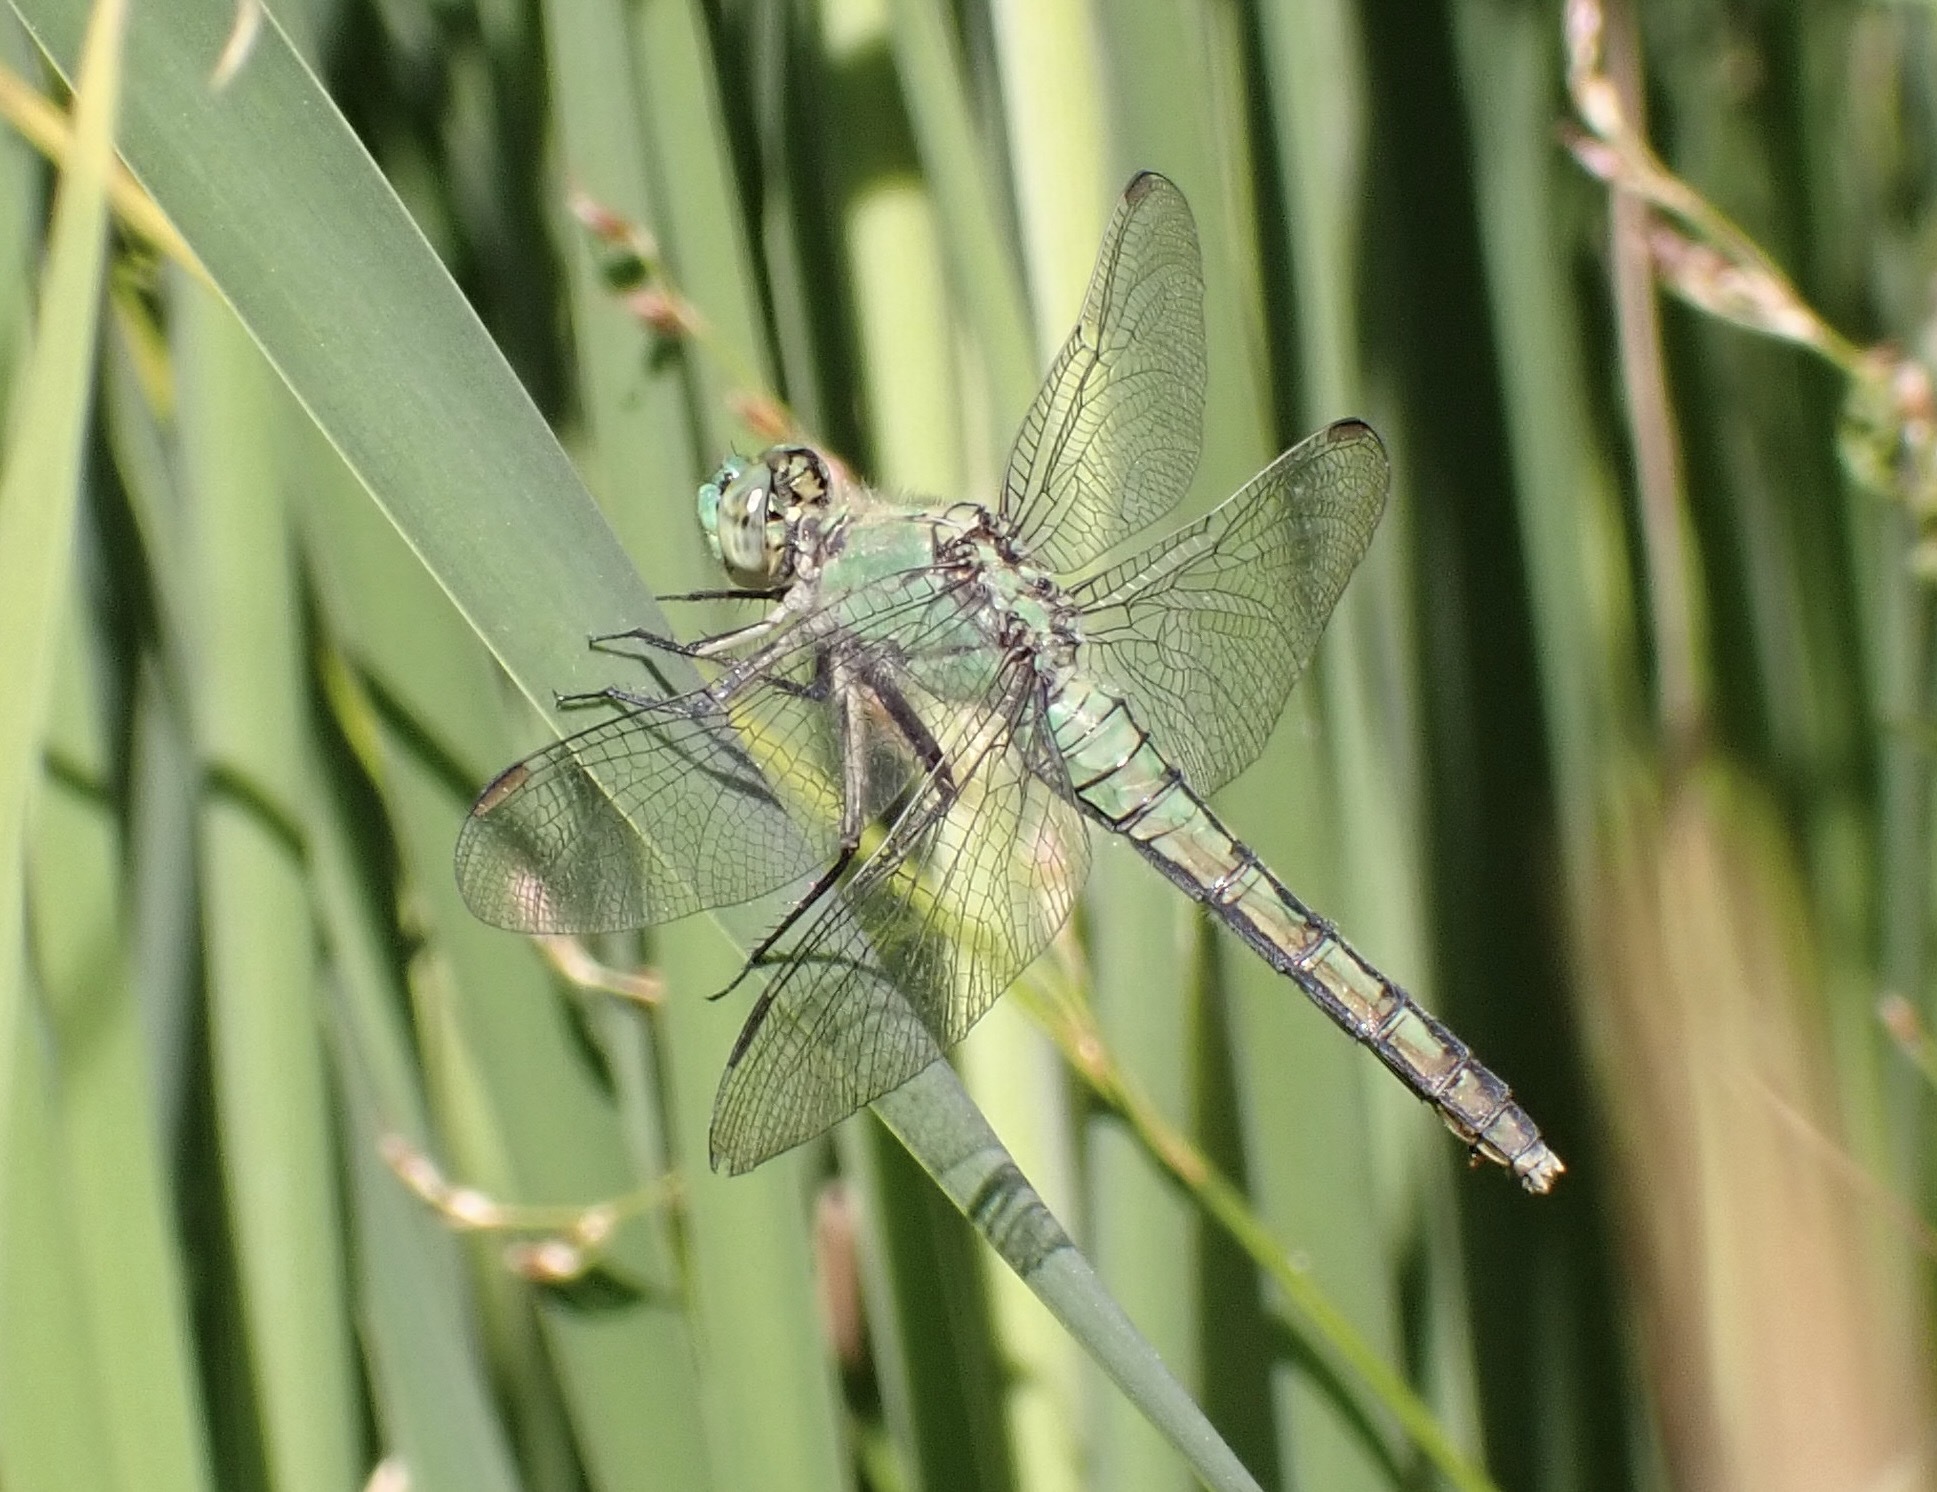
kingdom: Animalia
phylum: Arthropoda
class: Insecta
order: Odonata
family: Libellulidae
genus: Erythemis
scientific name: Erythemis collocata
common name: Western pondhawk
